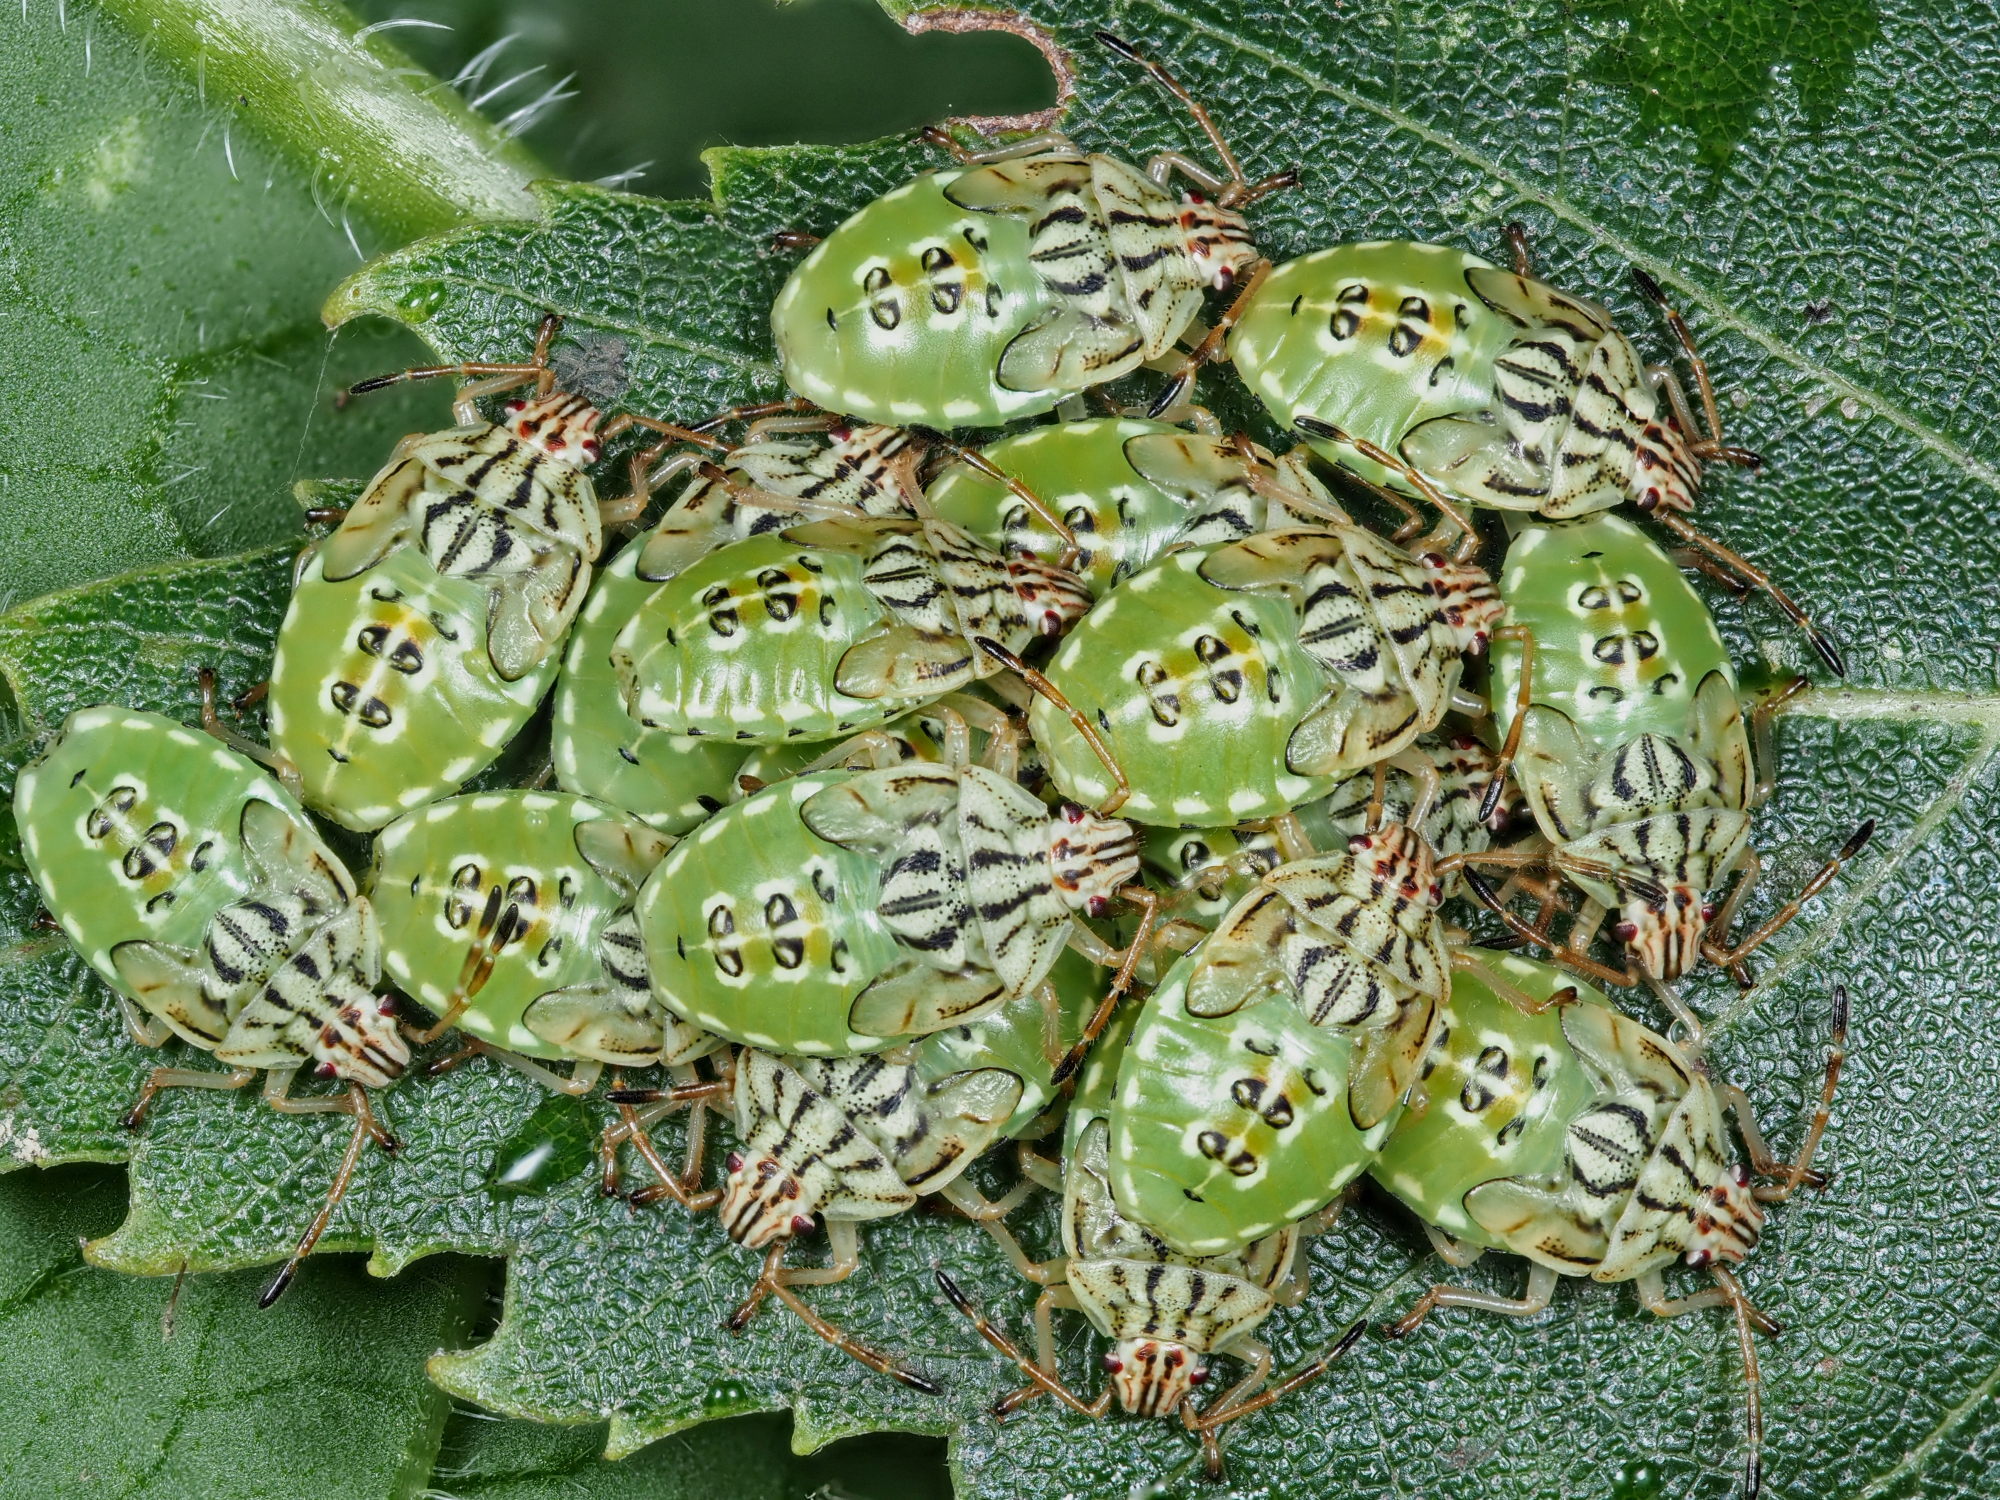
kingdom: Animalia
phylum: Arthropoda
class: Insecta
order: Hemiptera
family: Acanthosomatidae
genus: Elasmucha
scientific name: Elasmucha grisea
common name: Parent bug
